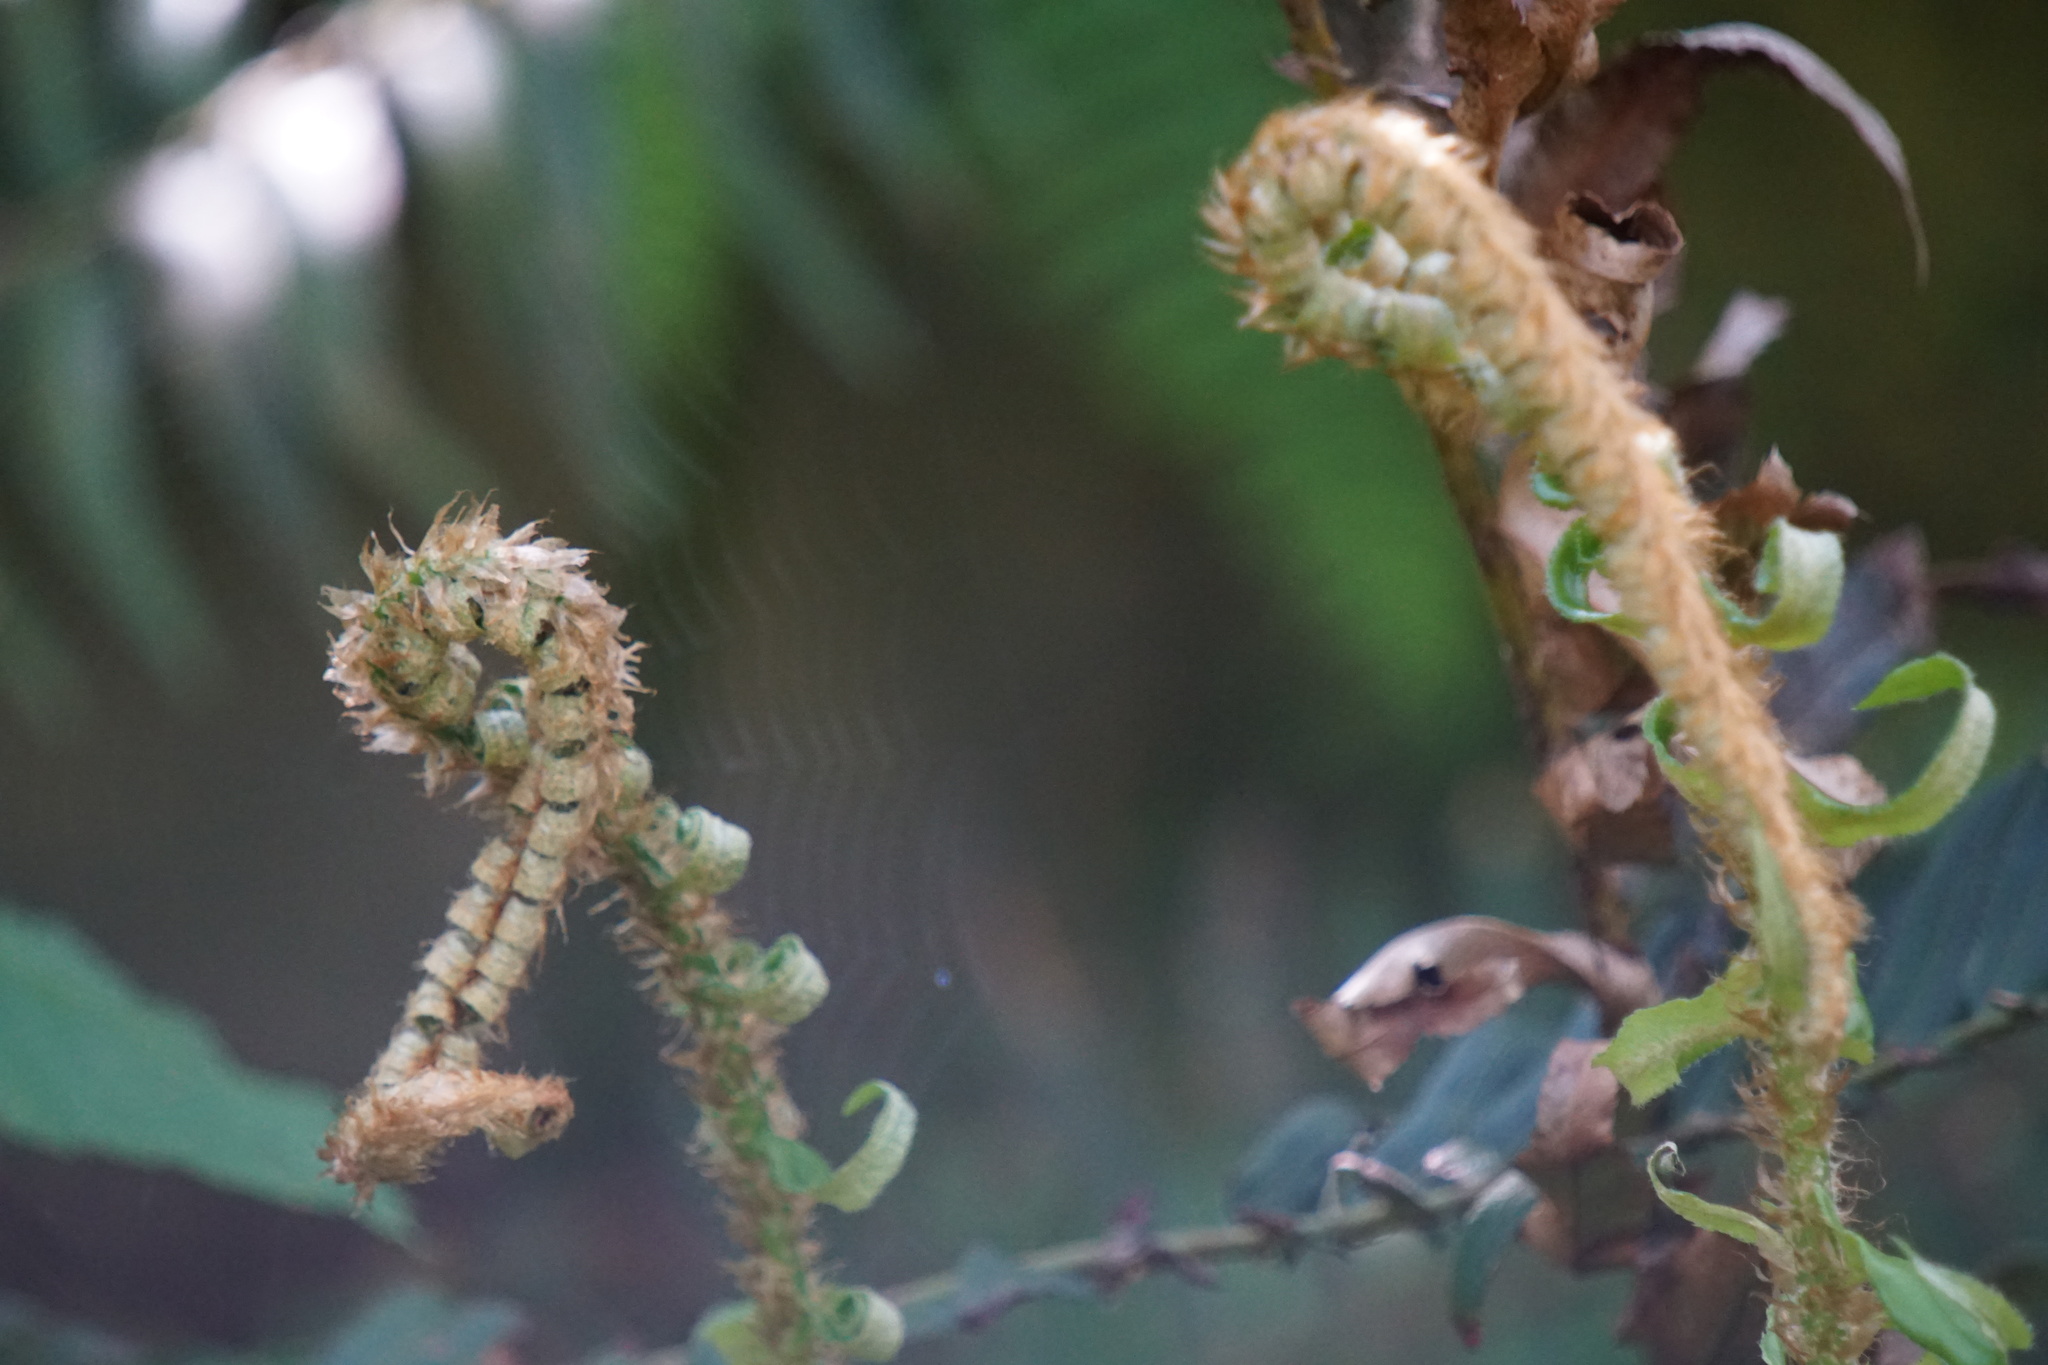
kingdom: Plantae
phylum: Tracheophyta
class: Polypodiopsida
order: Polypodiales
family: Dryopteridaceae
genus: Polystichum
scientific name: Polystichum munitum
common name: Western sword-fern
